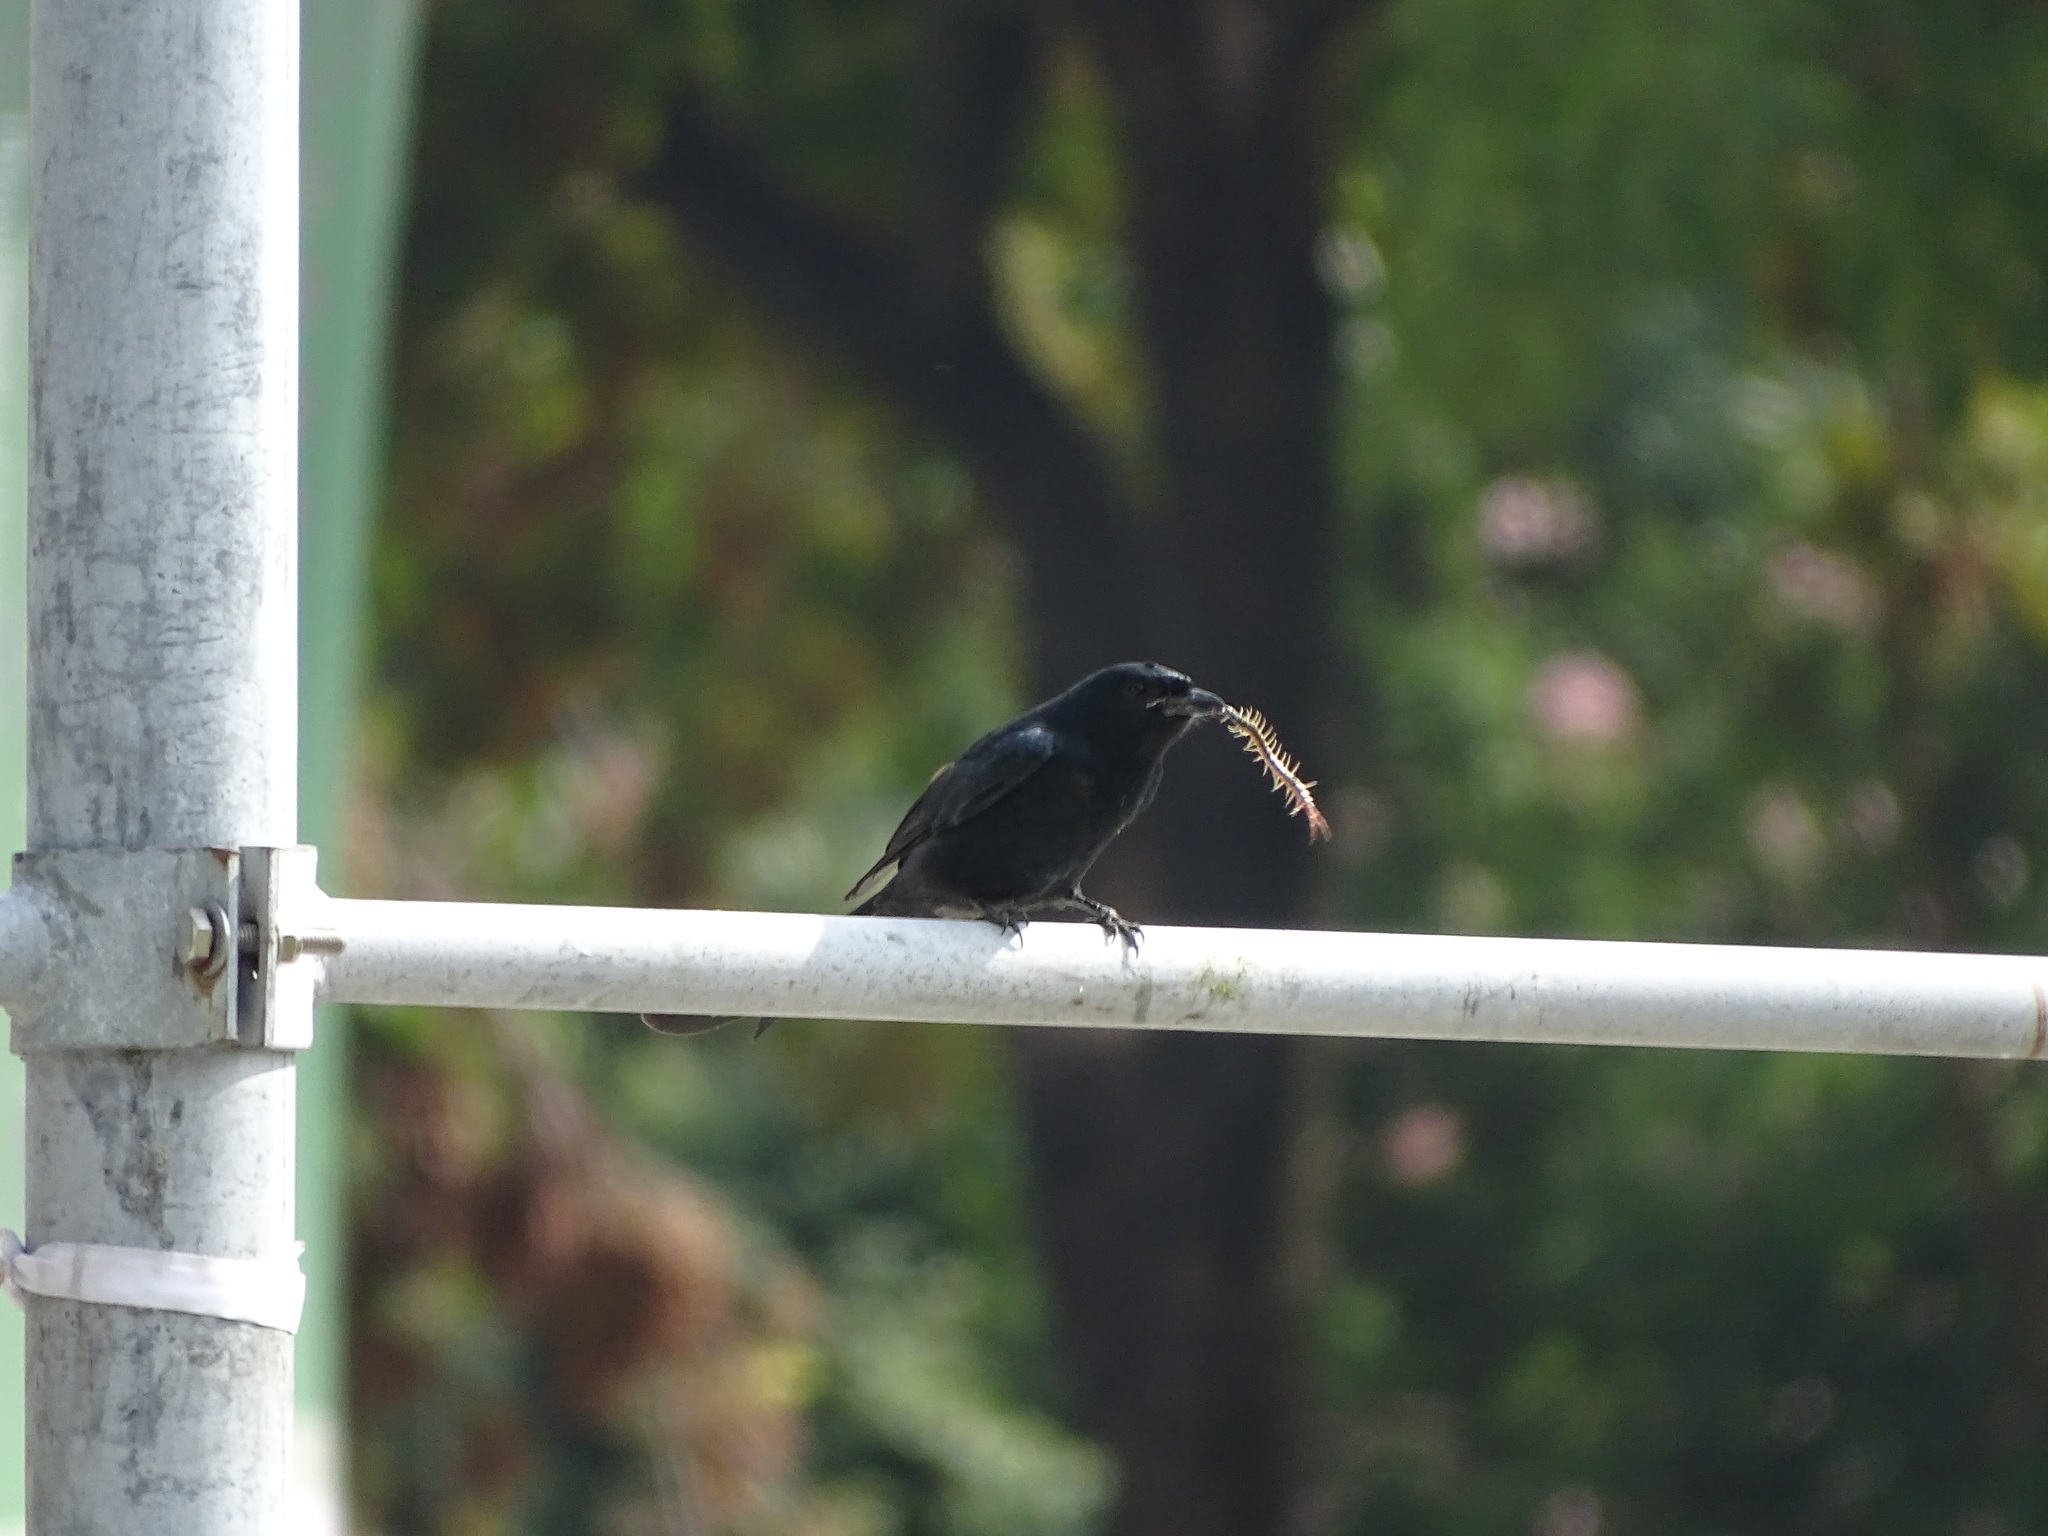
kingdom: Animalia
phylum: Chordata
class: Aves
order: Passeriformes
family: Dicruridae
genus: Dicrurus
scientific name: Dicrurus macrocercus
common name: Black drongo
